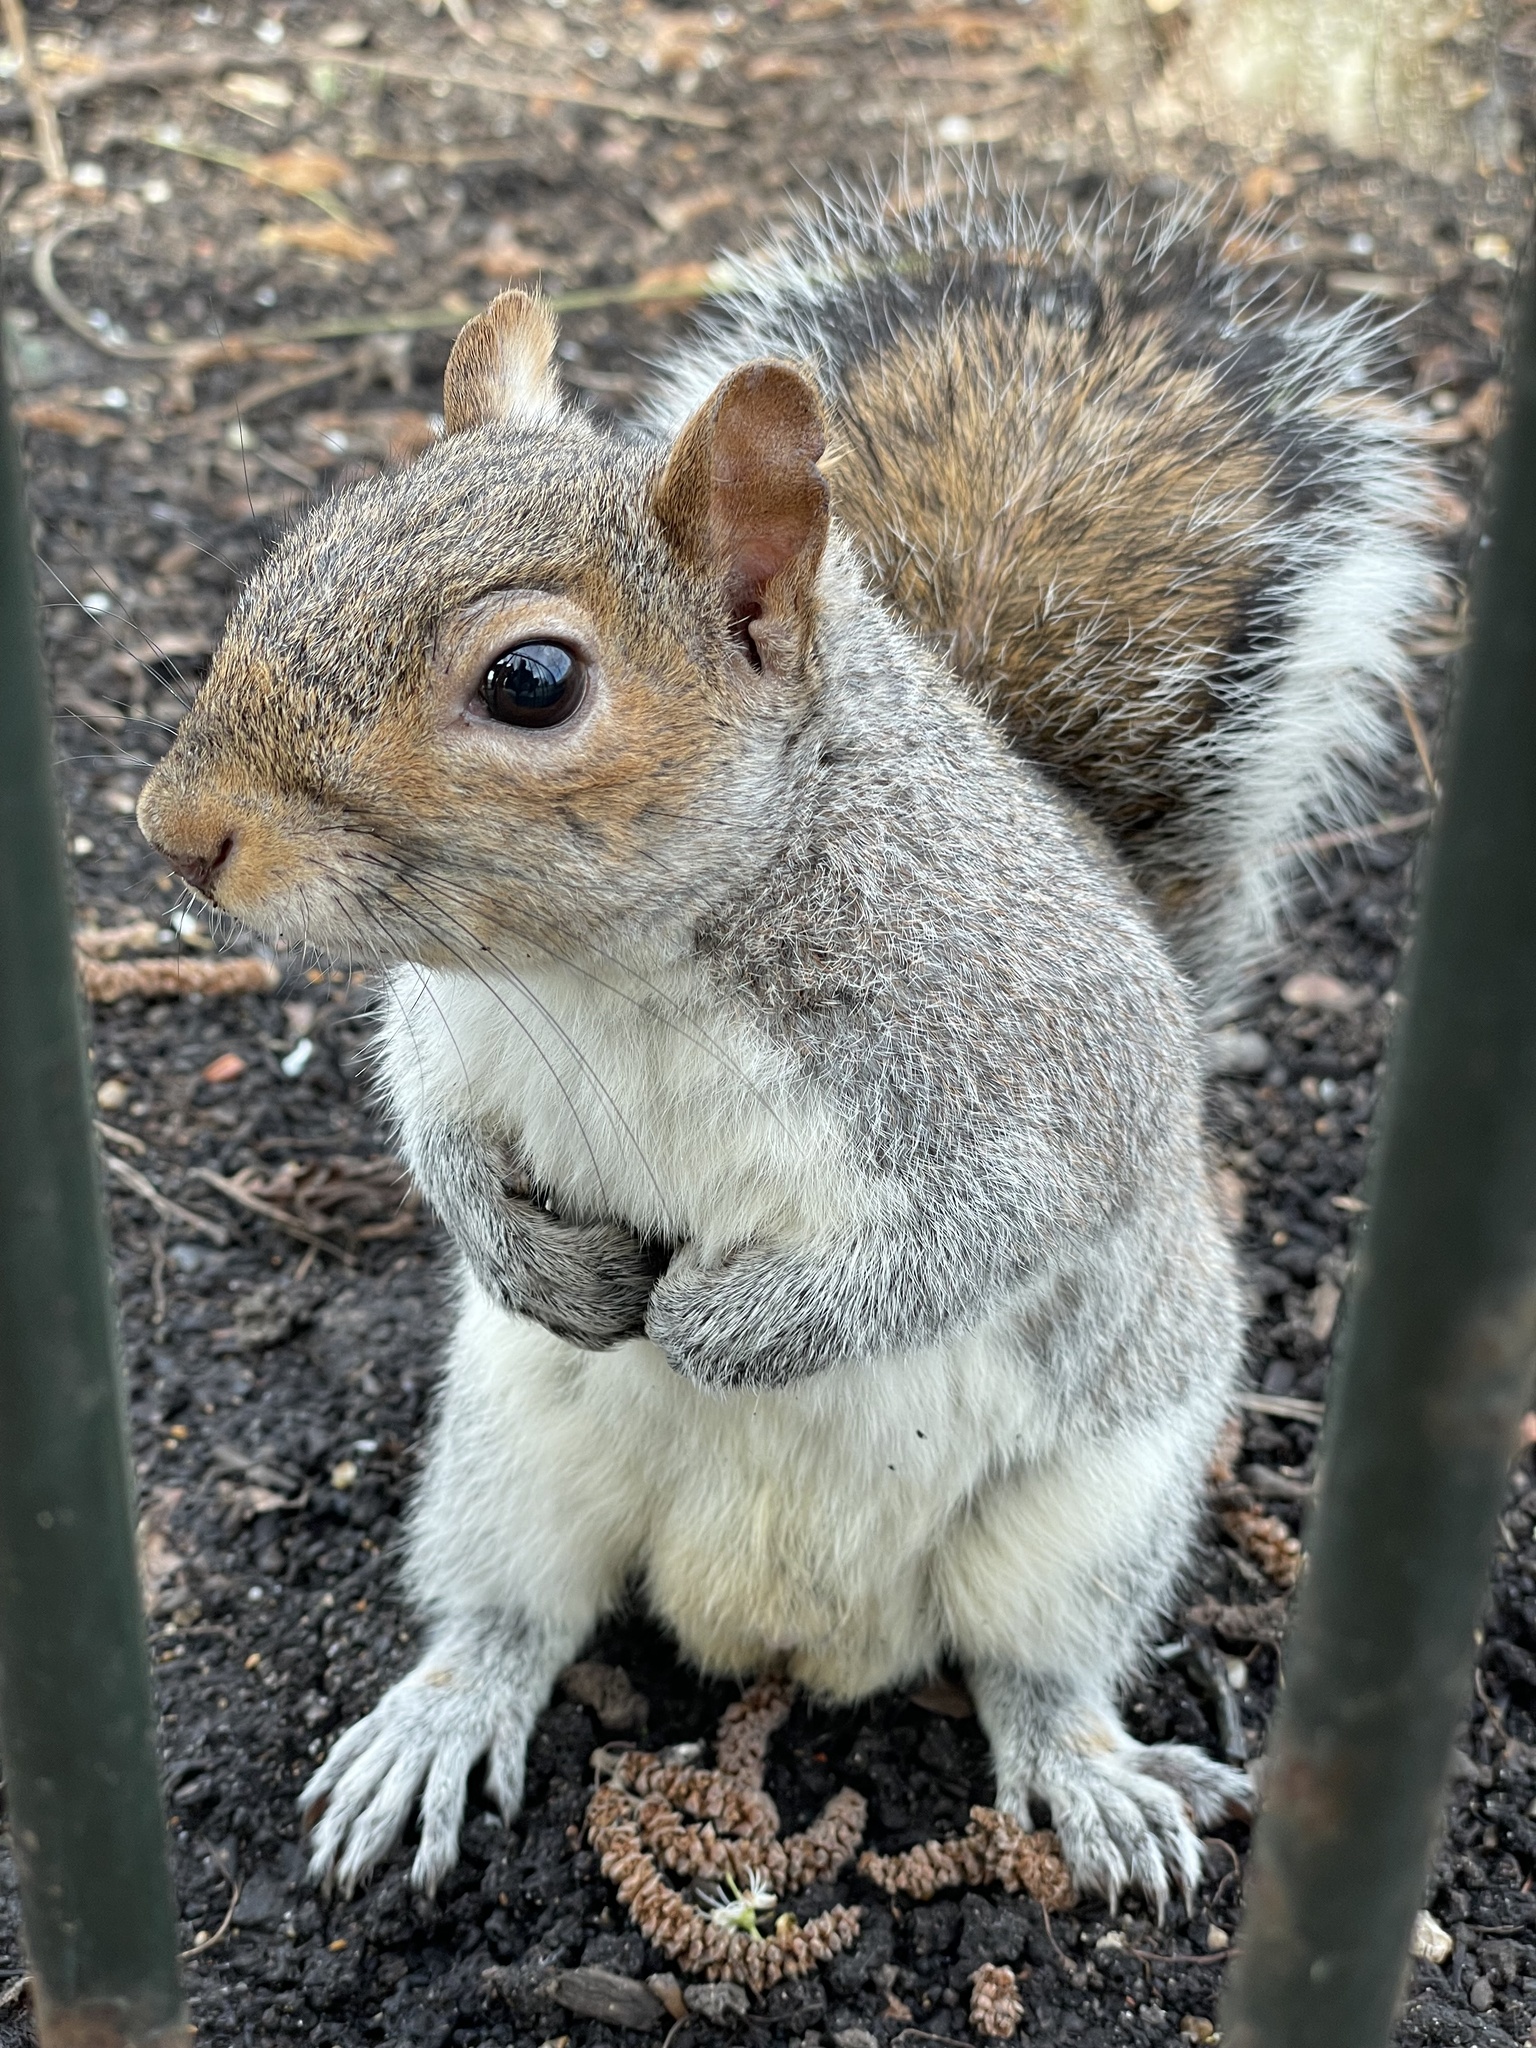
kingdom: Animalia
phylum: Chordata
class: Mammalia
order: Rodentia
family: Sciuridae
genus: Sciurus
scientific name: Sciurus carolinensis
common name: Eastern gray squirrel
